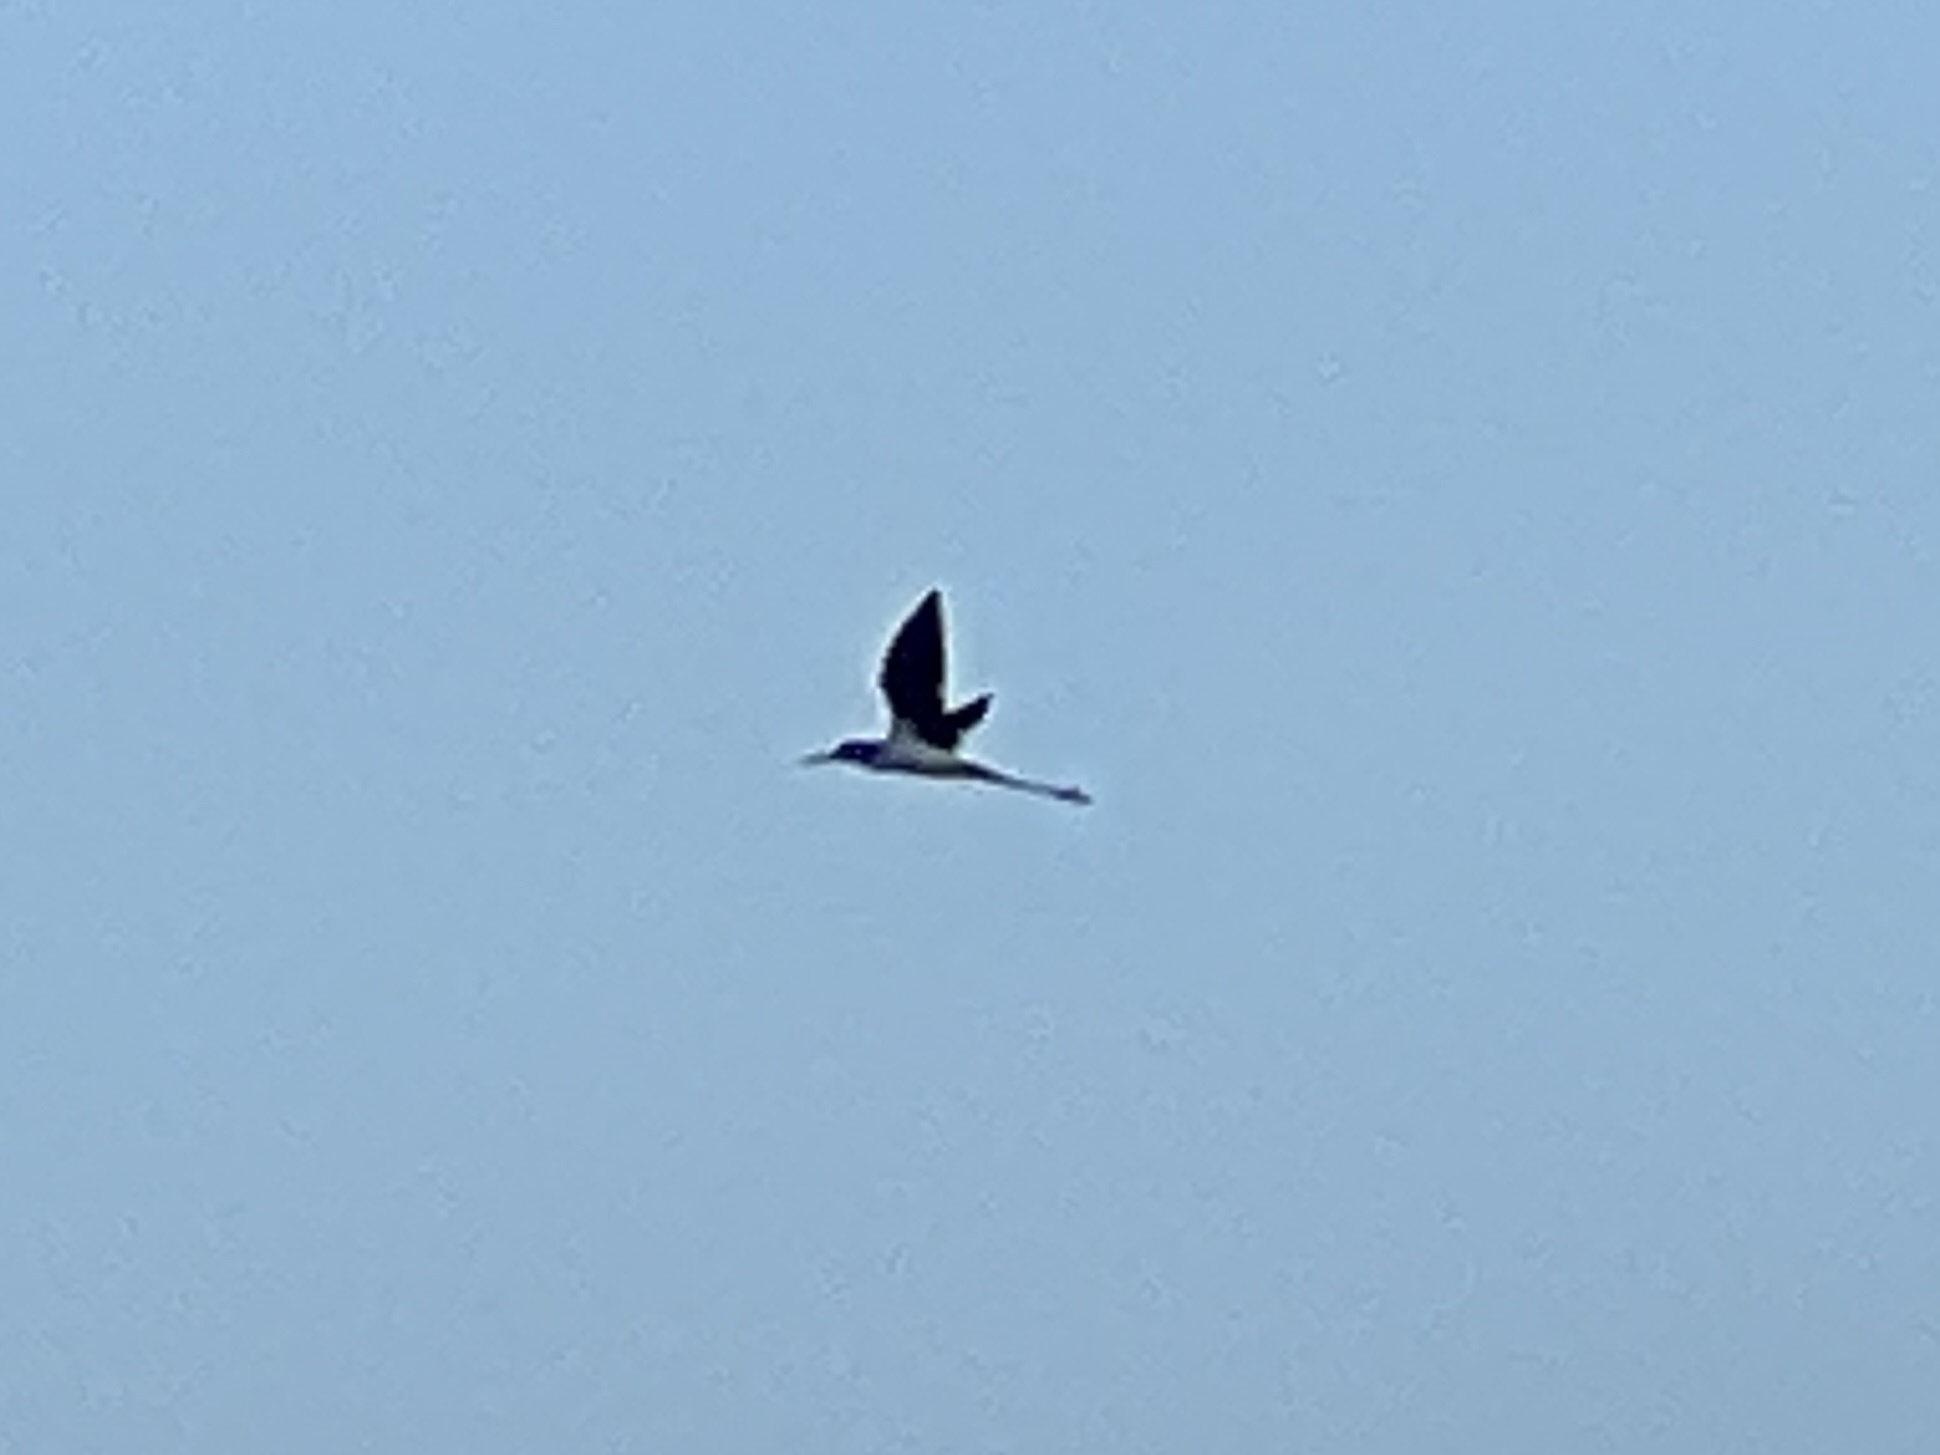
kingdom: Animalia
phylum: Chordata
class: Aves
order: Charadriiformes
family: Recurvirostridae
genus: Himantopus
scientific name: Himantopus mexicanus
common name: Black-necked stilt
